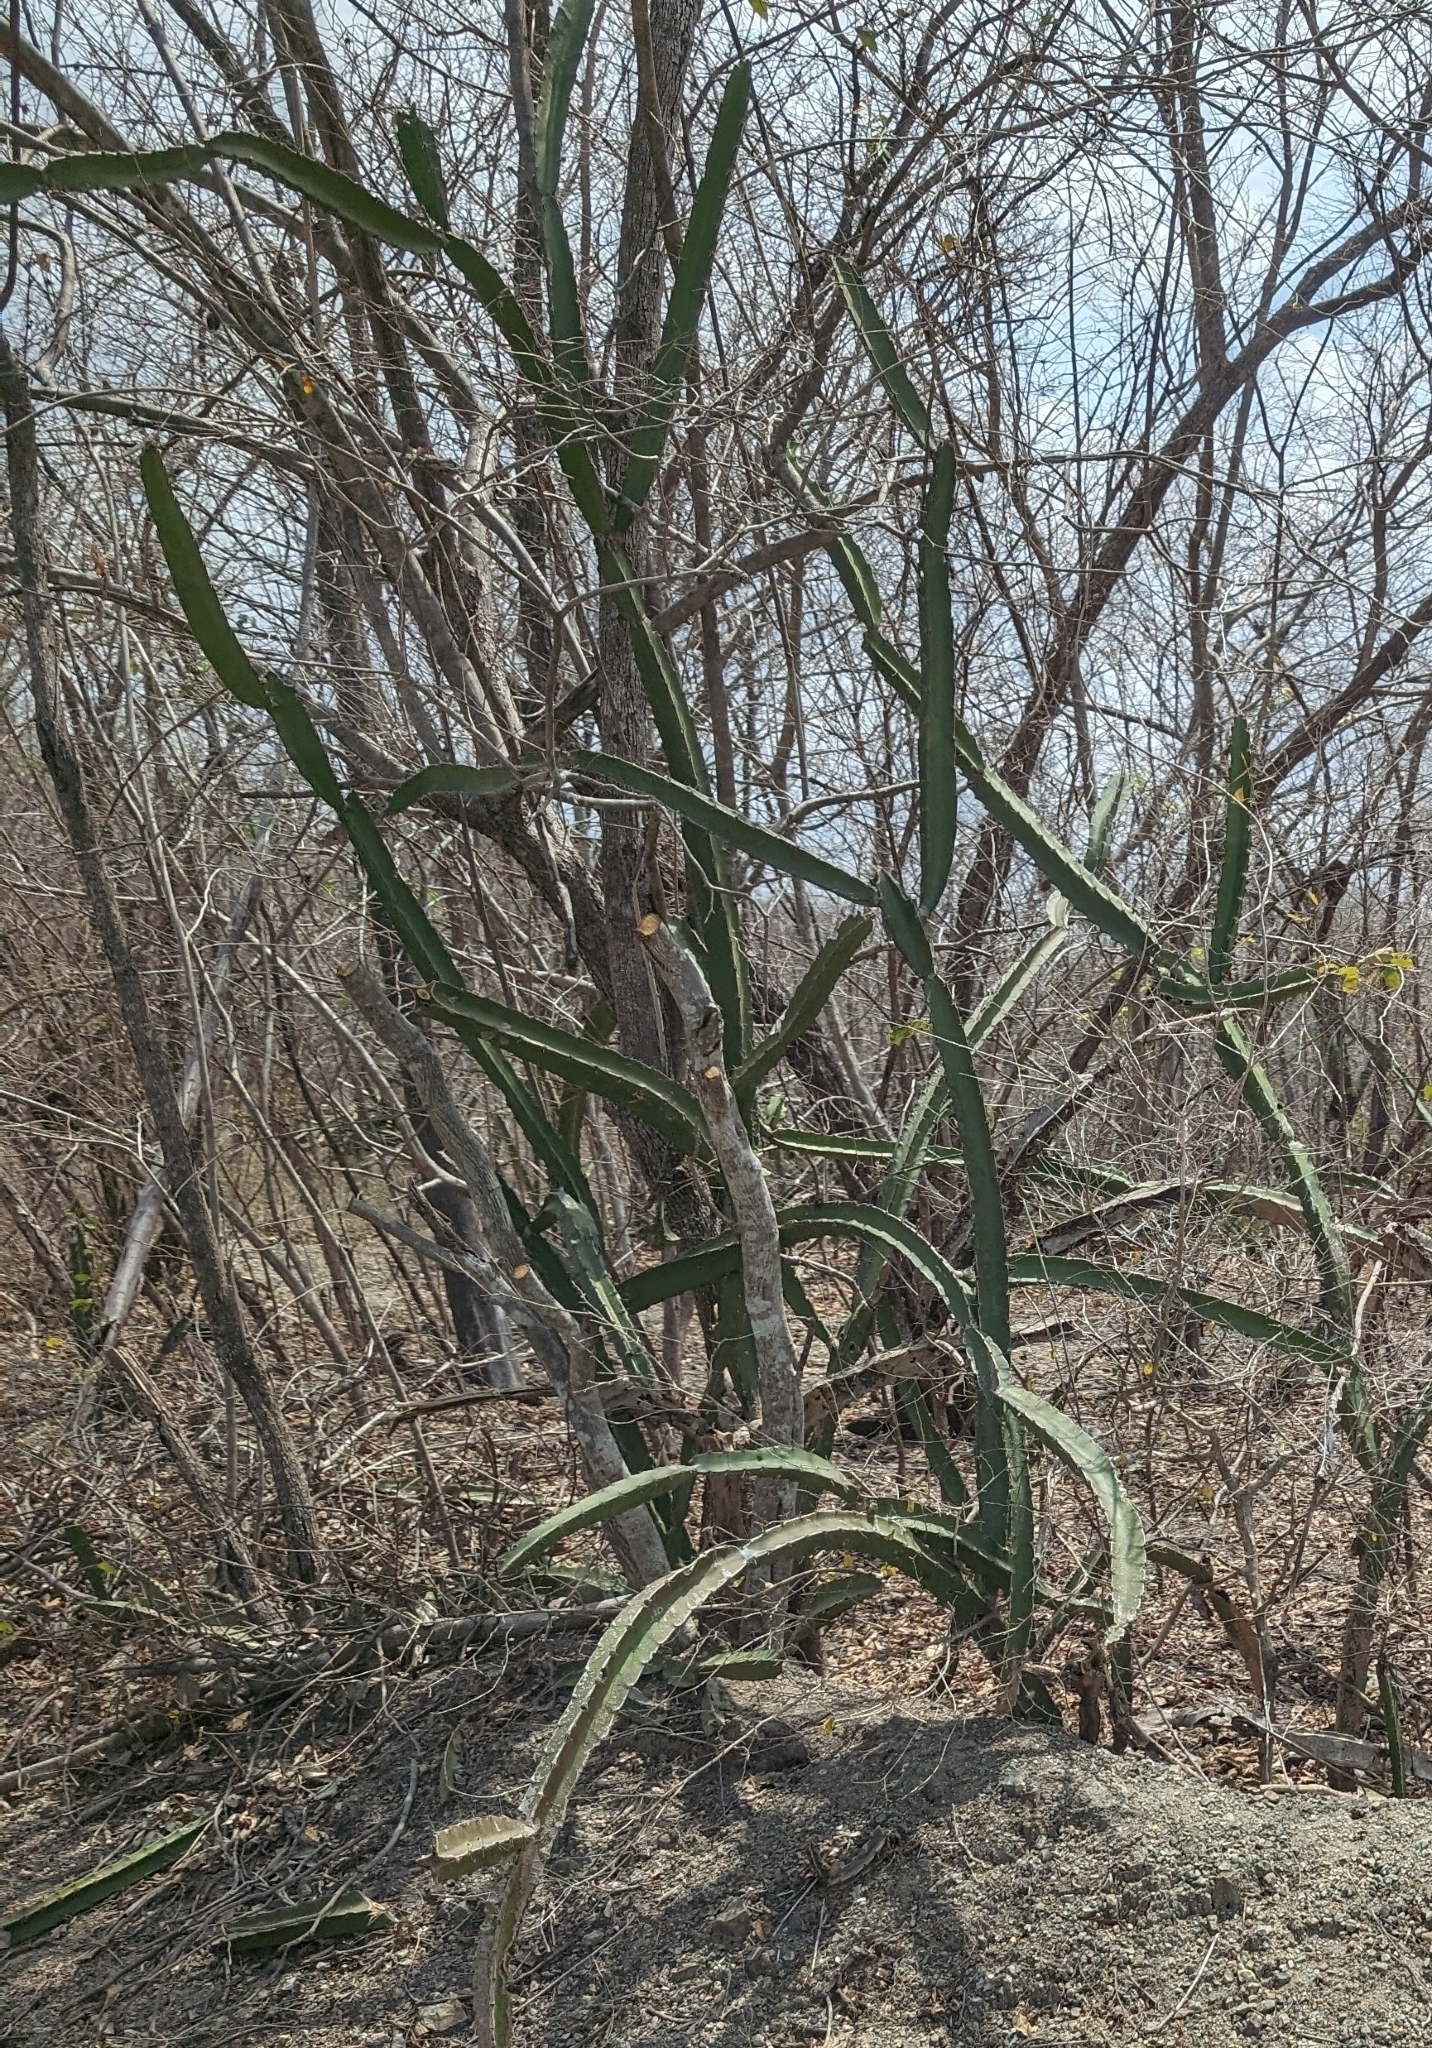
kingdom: Plantae
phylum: Tracheophyta
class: Magnoliopsida
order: Caryophyllales
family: Cactaceae
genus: Acanthocereus
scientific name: Acanthocereus tetragonus
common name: Triangle cactus
